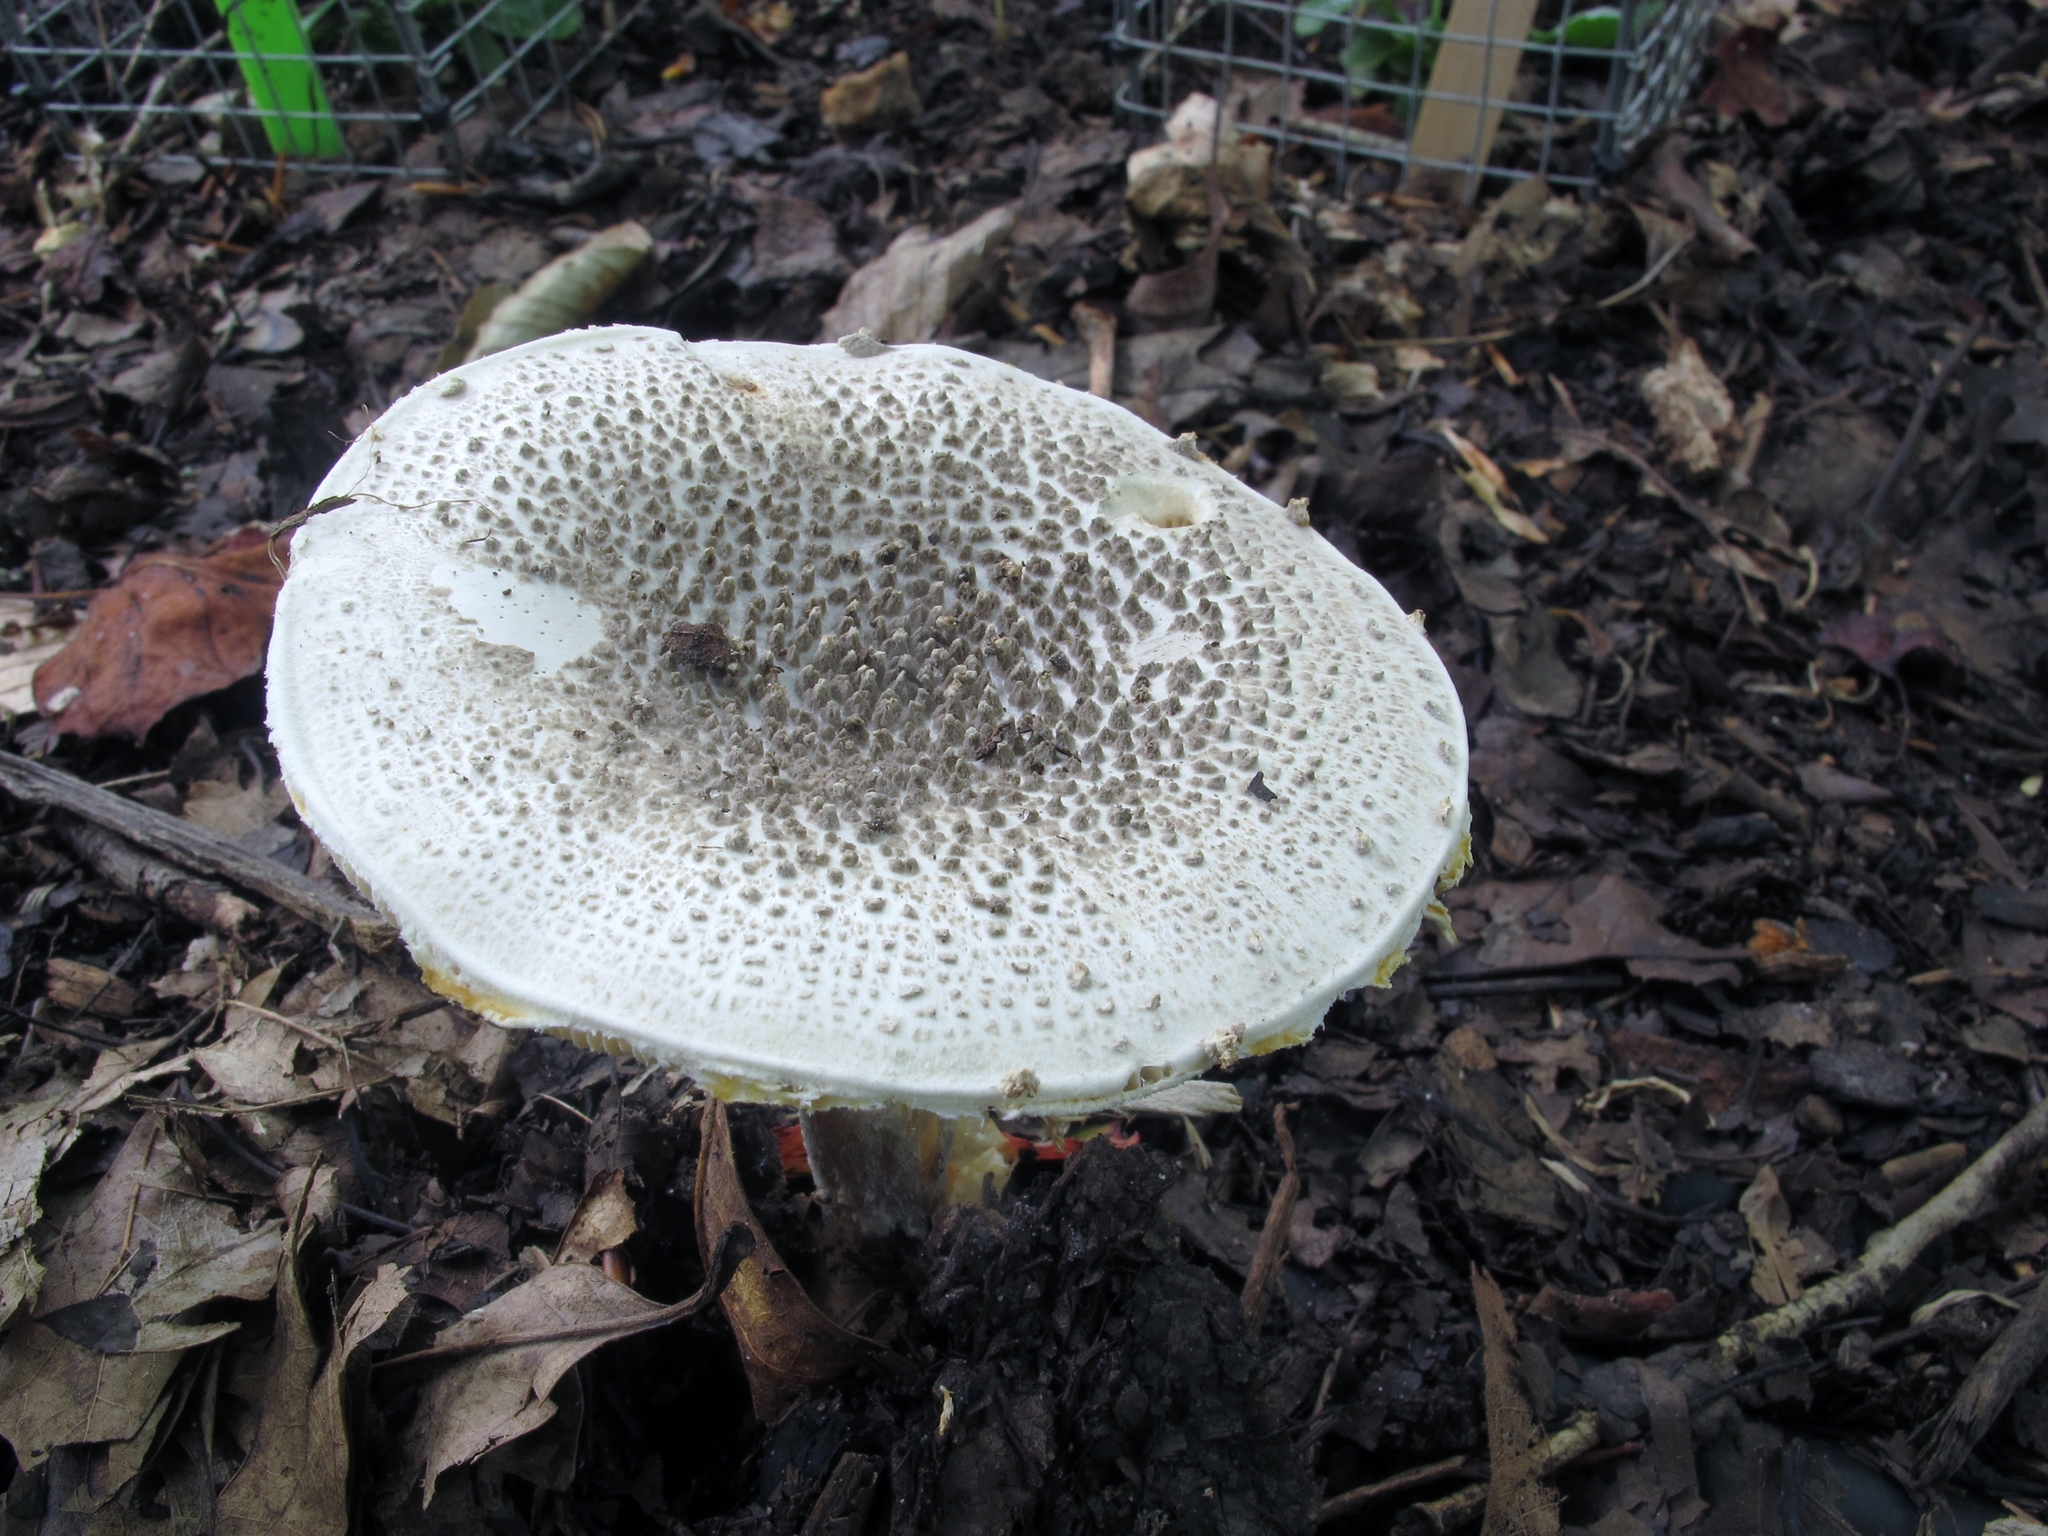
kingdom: Fungi
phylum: Basidiomycota
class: Agaricomycetes
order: Agaricales
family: Amanitaceae
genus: Amanita
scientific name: Amanita onusta
